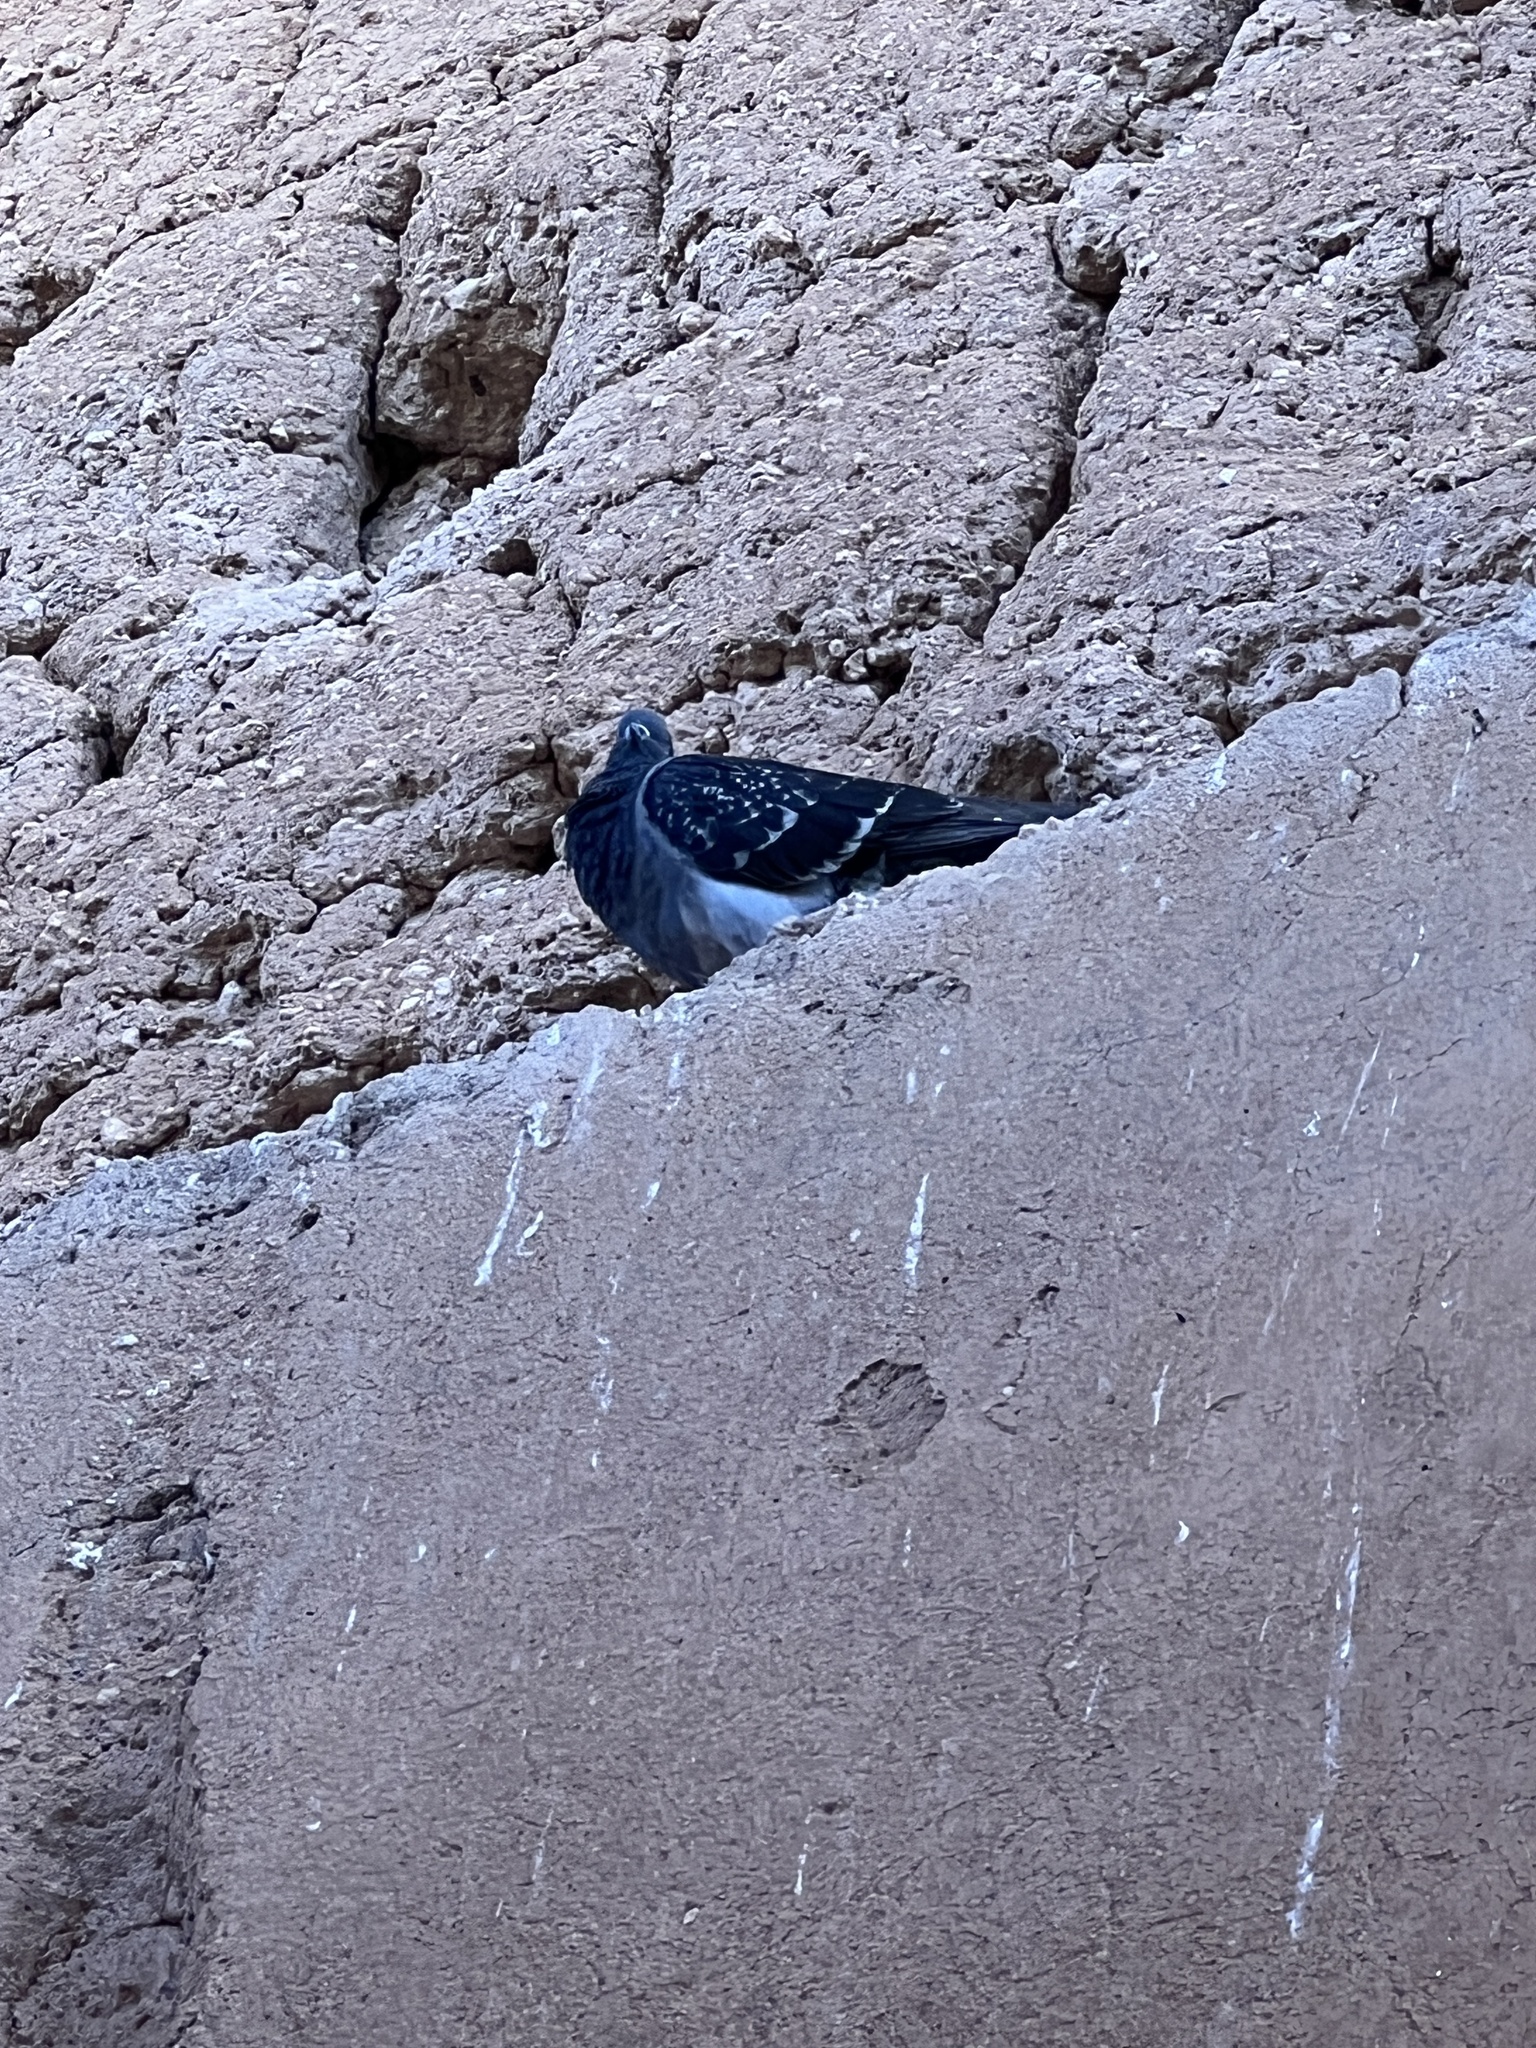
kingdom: Animalia
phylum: Chordata
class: Aves
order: Columbiformes
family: Columbidae
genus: Columba
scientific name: Columba livia
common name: Rock pigeon
